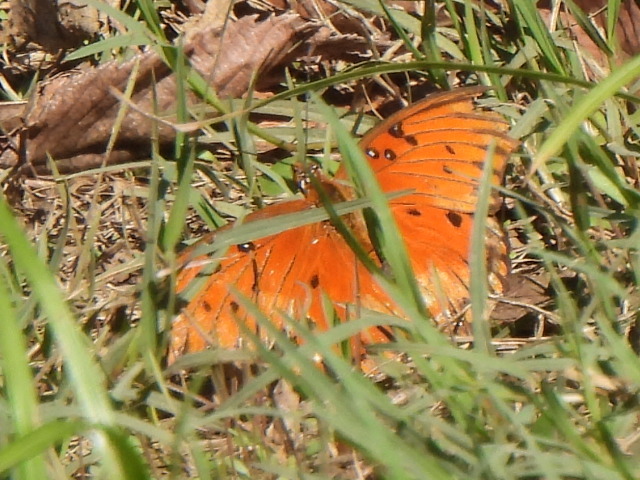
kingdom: Animalia
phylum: Arthropoda
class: Insecta
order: Lepidoptera
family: Nymphalidae
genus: Dione
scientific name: Dione vanillae
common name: Gulf fritillary
